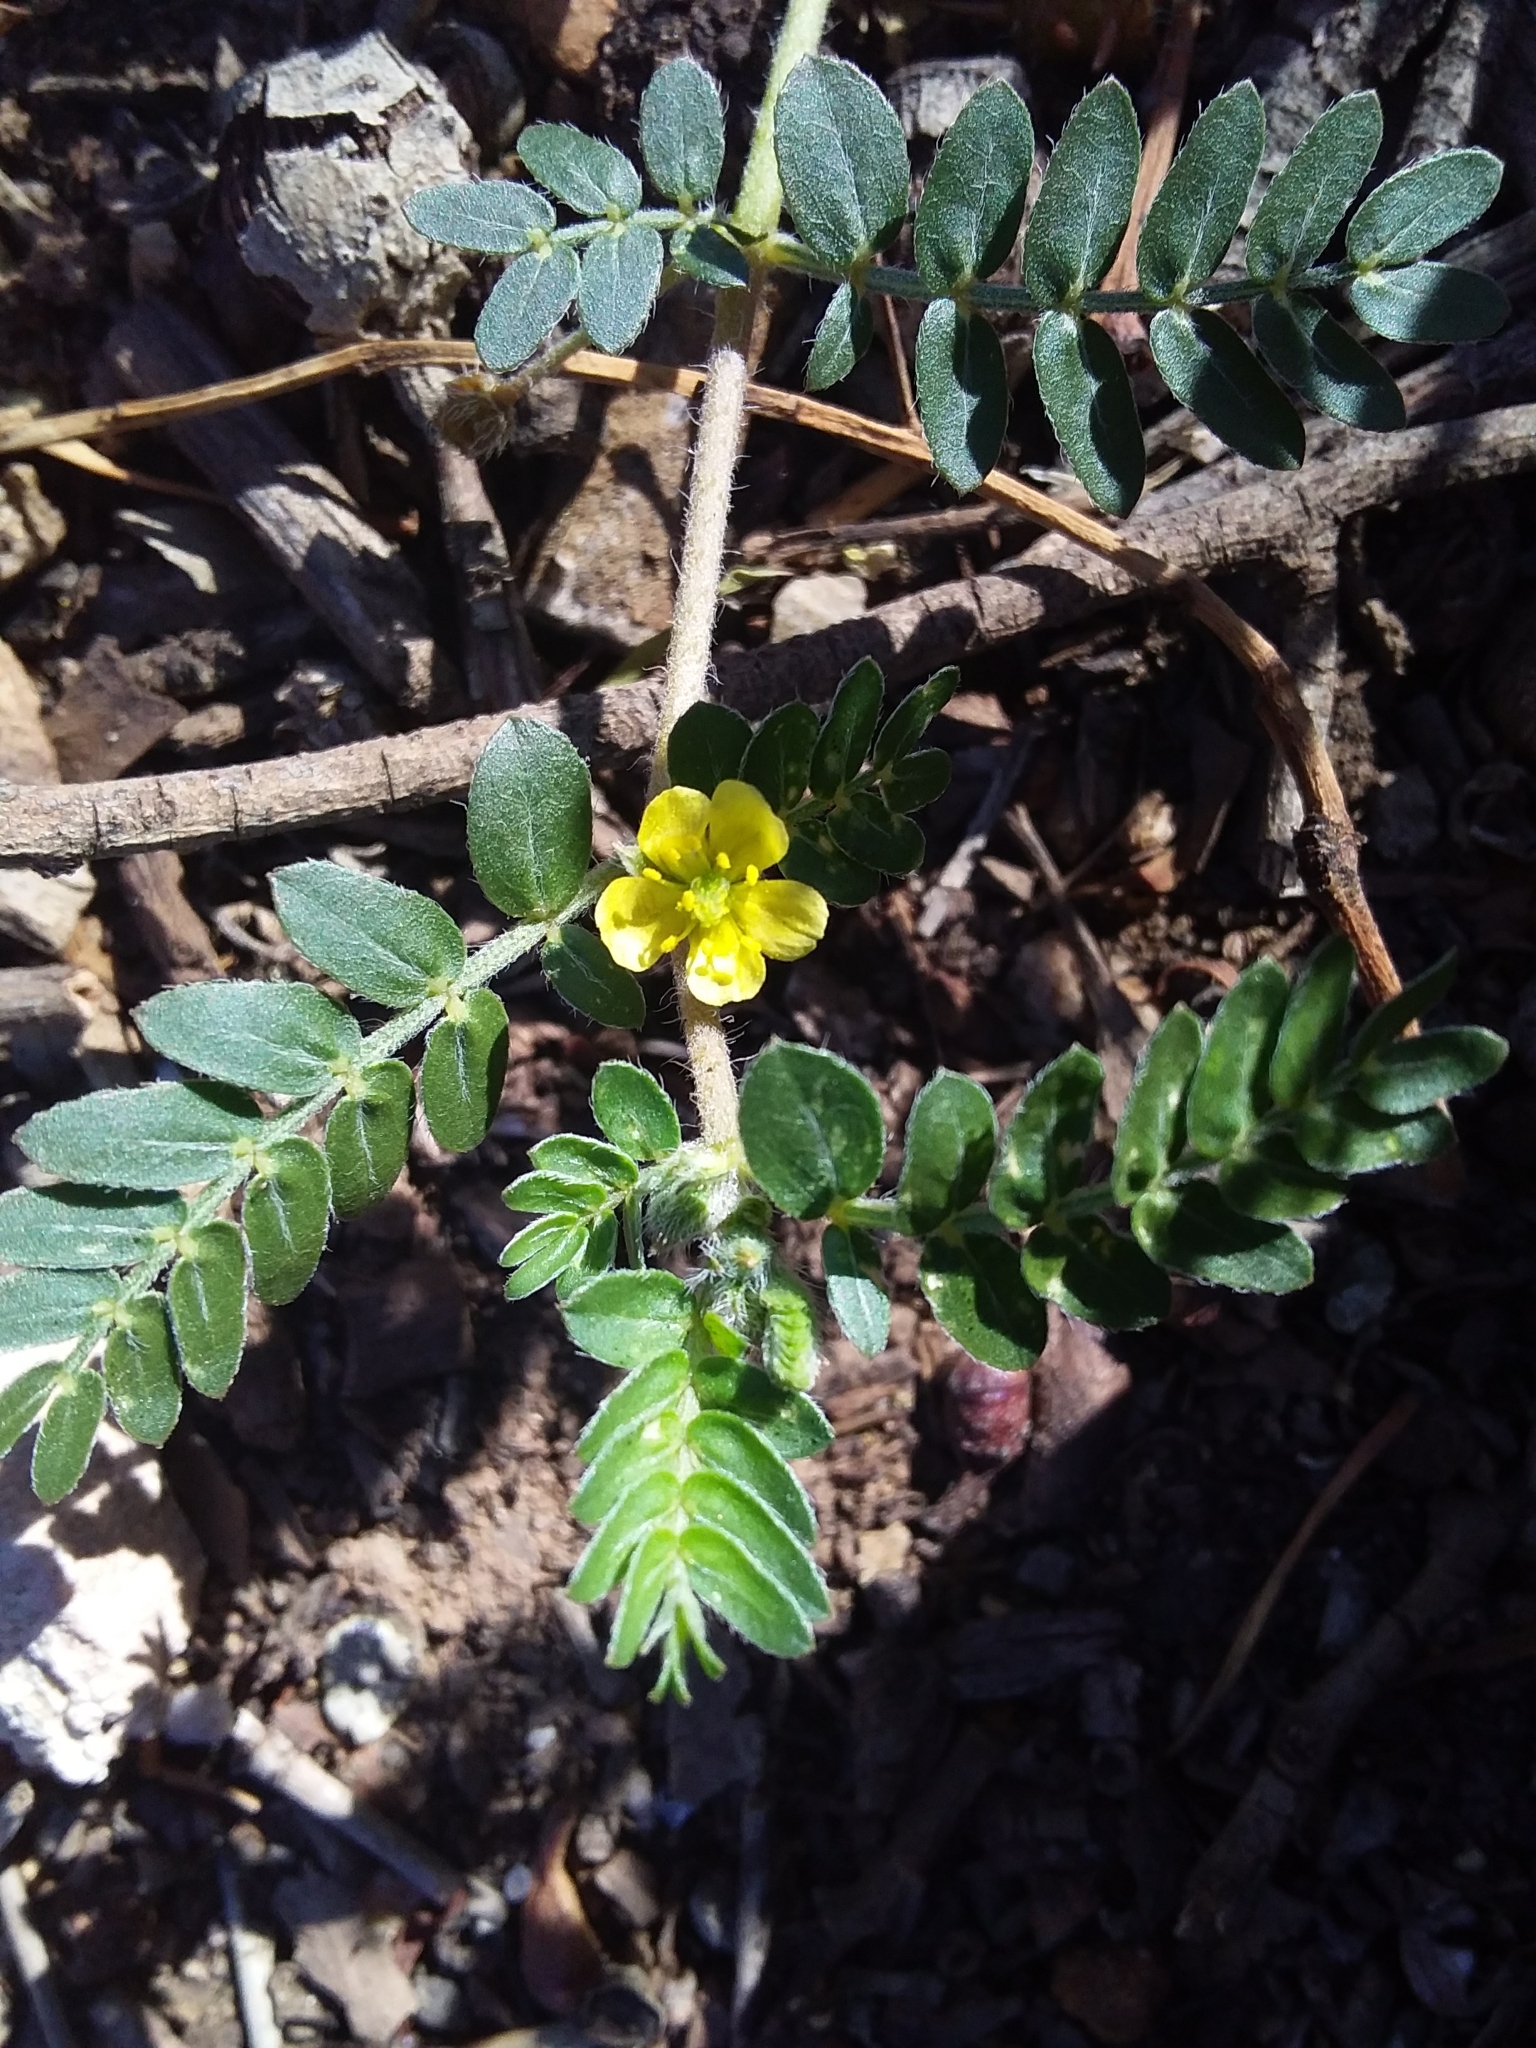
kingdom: Plantae
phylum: Tracheophyta
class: Magnoliopsida
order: Zygophyllales
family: Zygophyllaceae
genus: Tribulus
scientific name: Tribulus terrestris
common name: Puncturevine
